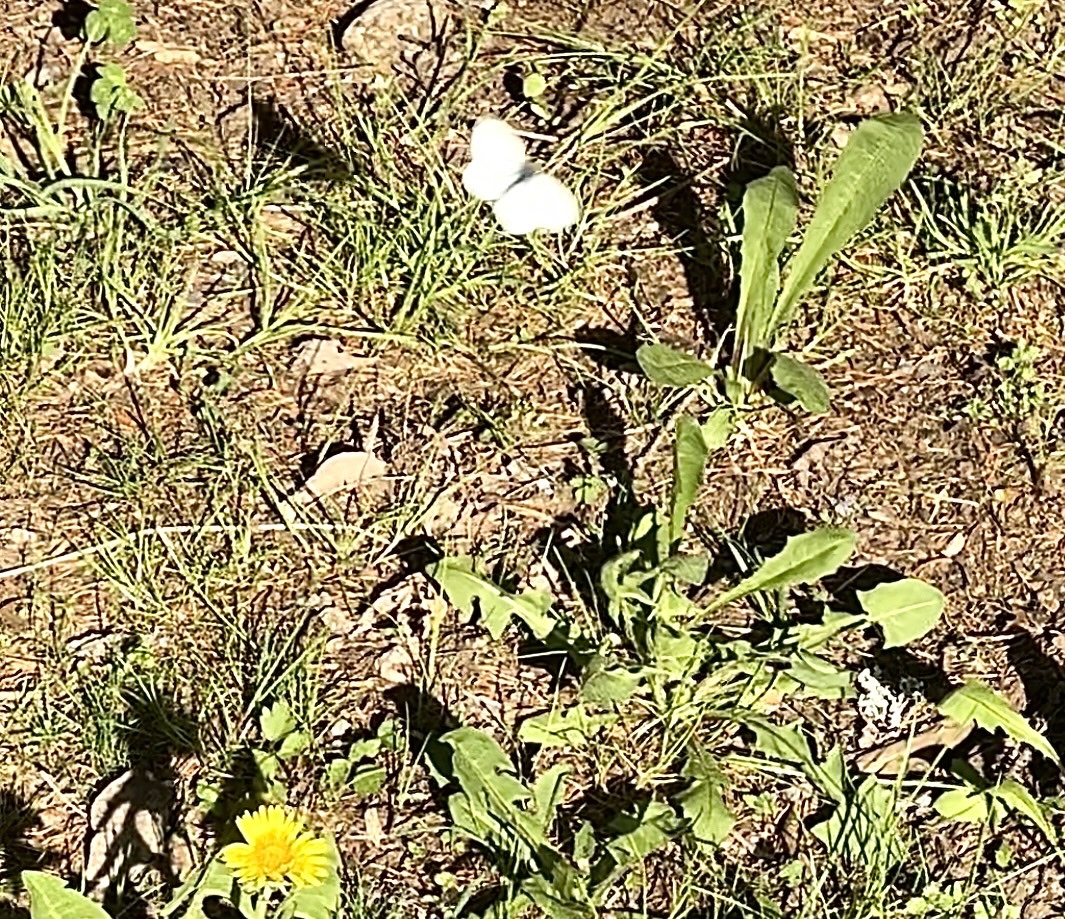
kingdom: Animalia
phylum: Arthropoda
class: Insecta
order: Lepidoptera
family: Pieridae
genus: Pieris
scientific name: Pieris napi
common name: Green-veined white
